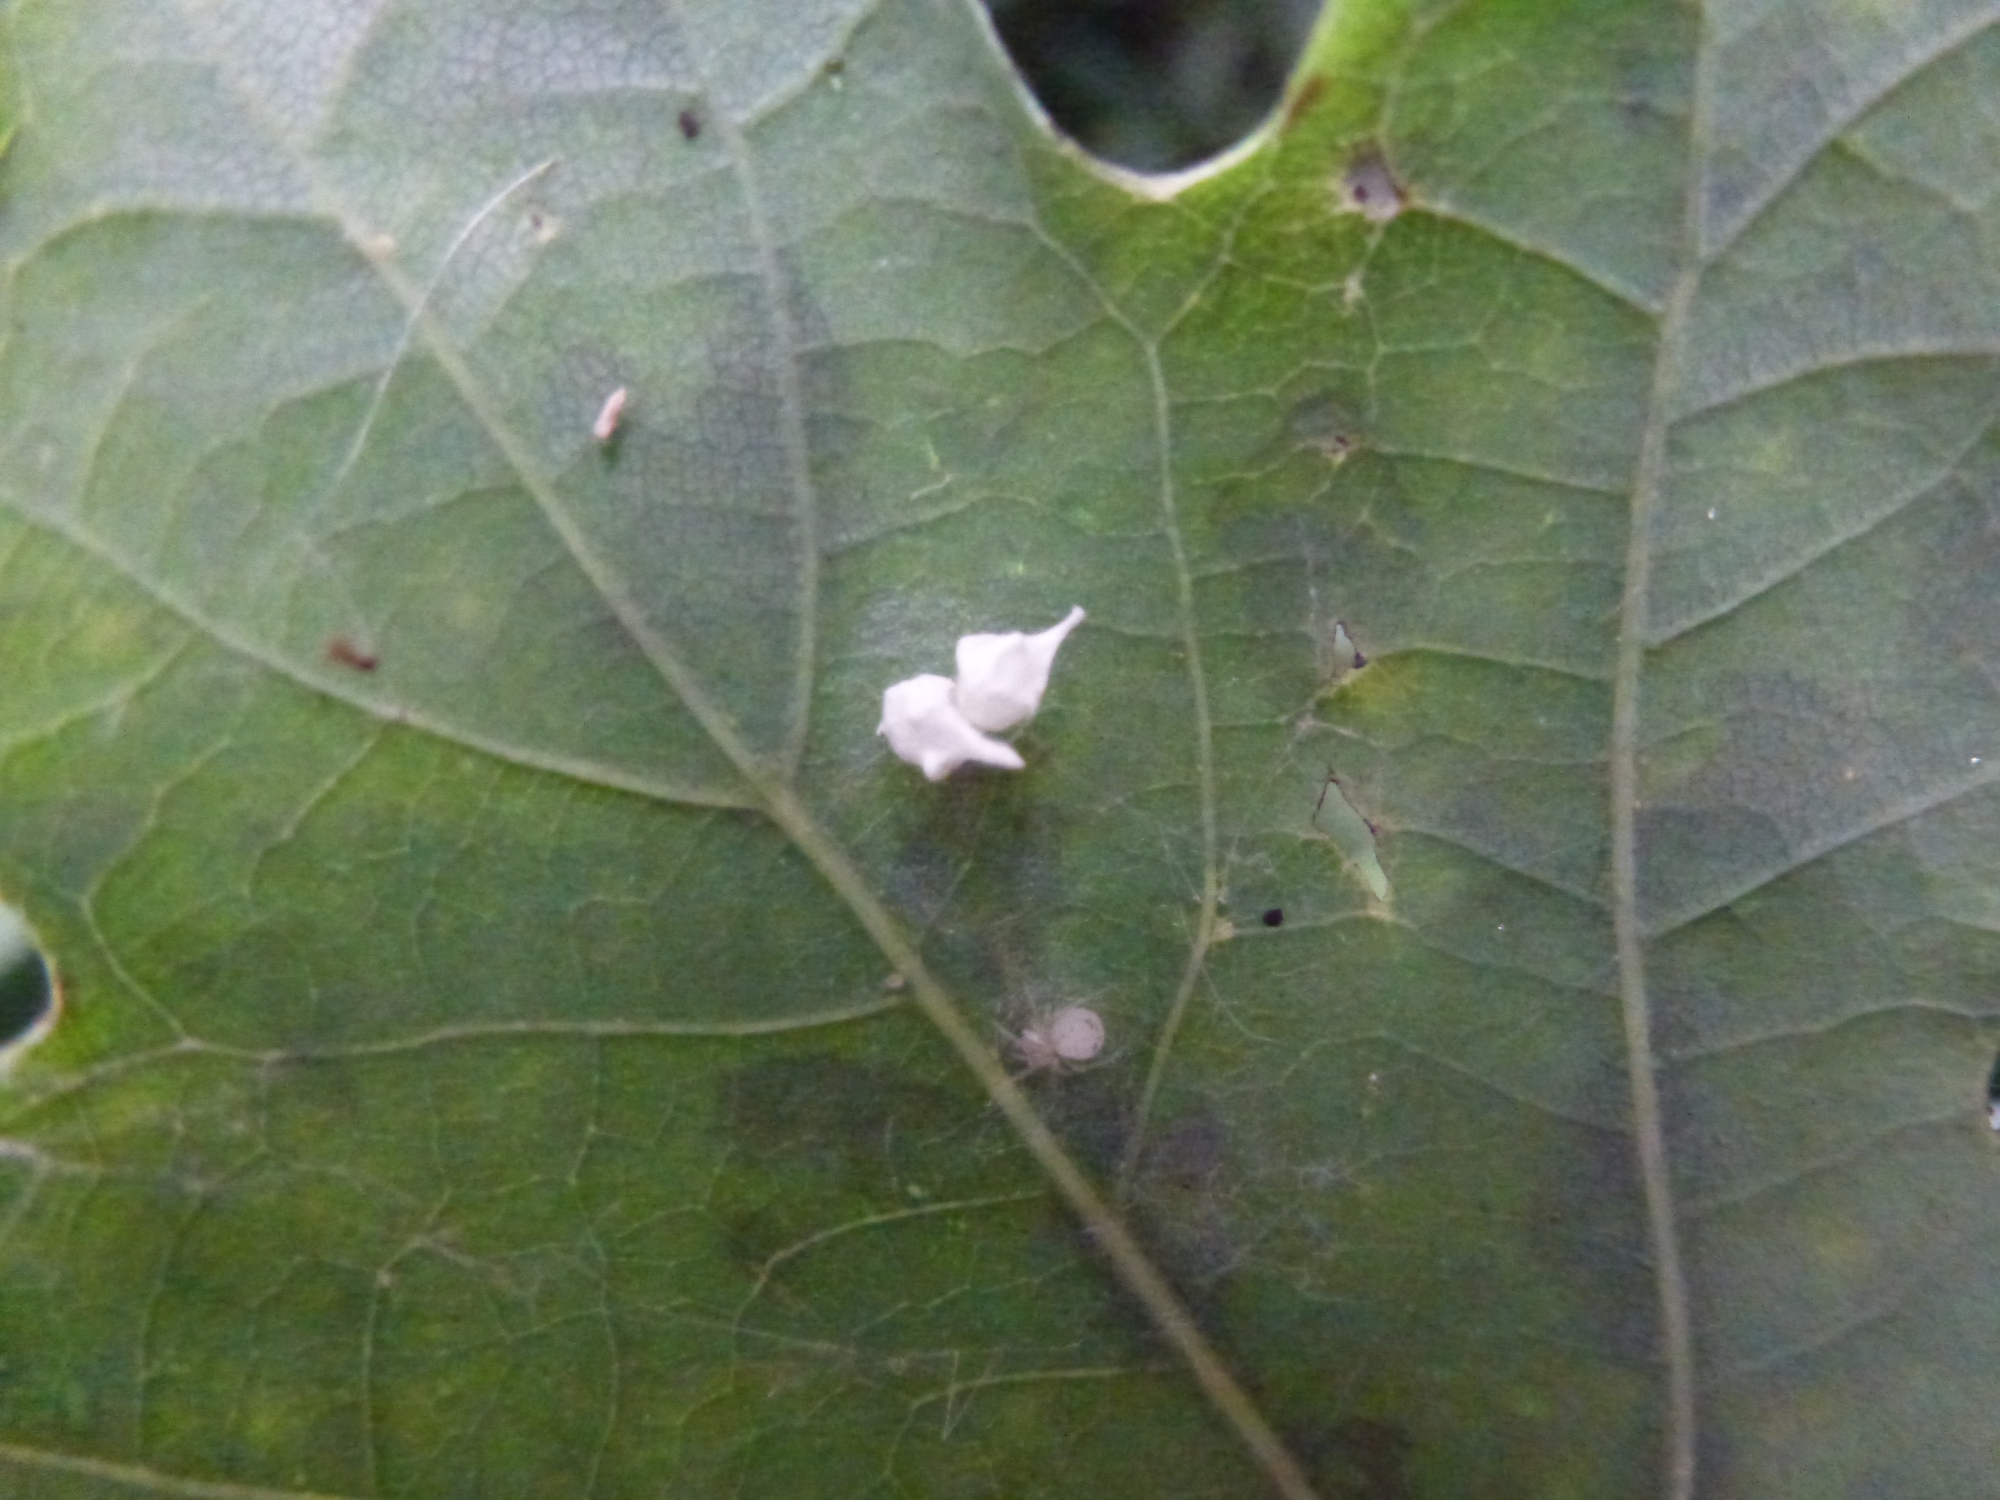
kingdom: Animalia
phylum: Arthropoda
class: Arachnida
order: Araneae
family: Theridiidae
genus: Paidiscura
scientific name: Paidiscura pallens
